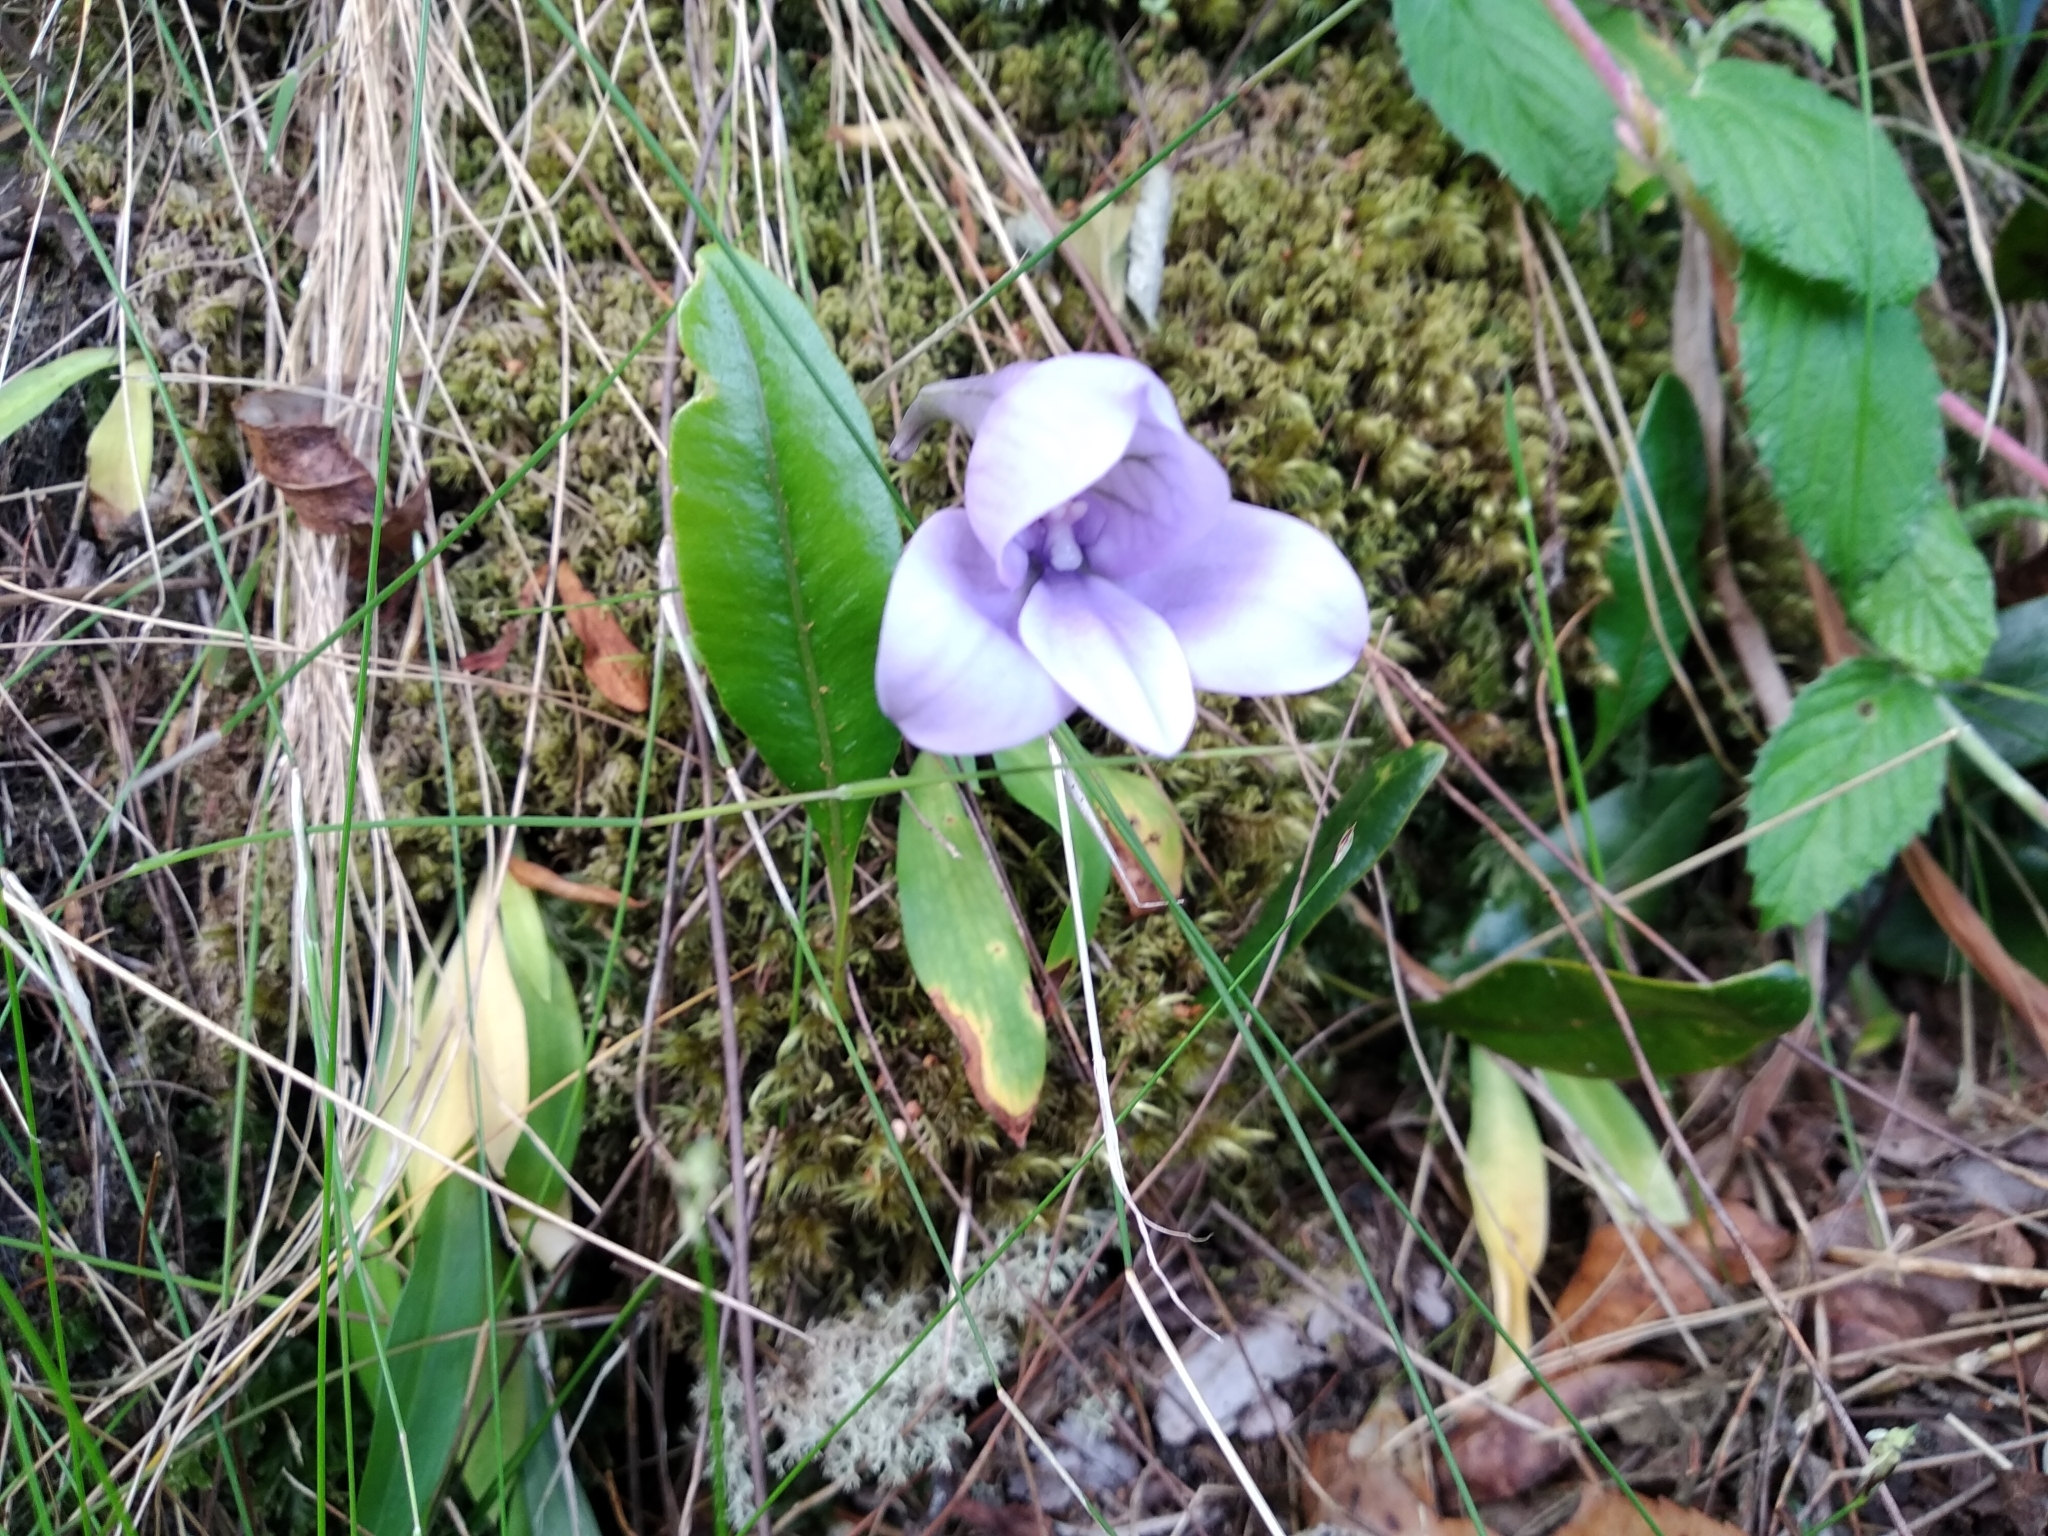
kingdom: Plantae
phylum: Tracheophyta
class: Liliopsida
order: Asparagales
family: Orchidaceae
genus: Disa
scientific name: Disa longicornu
